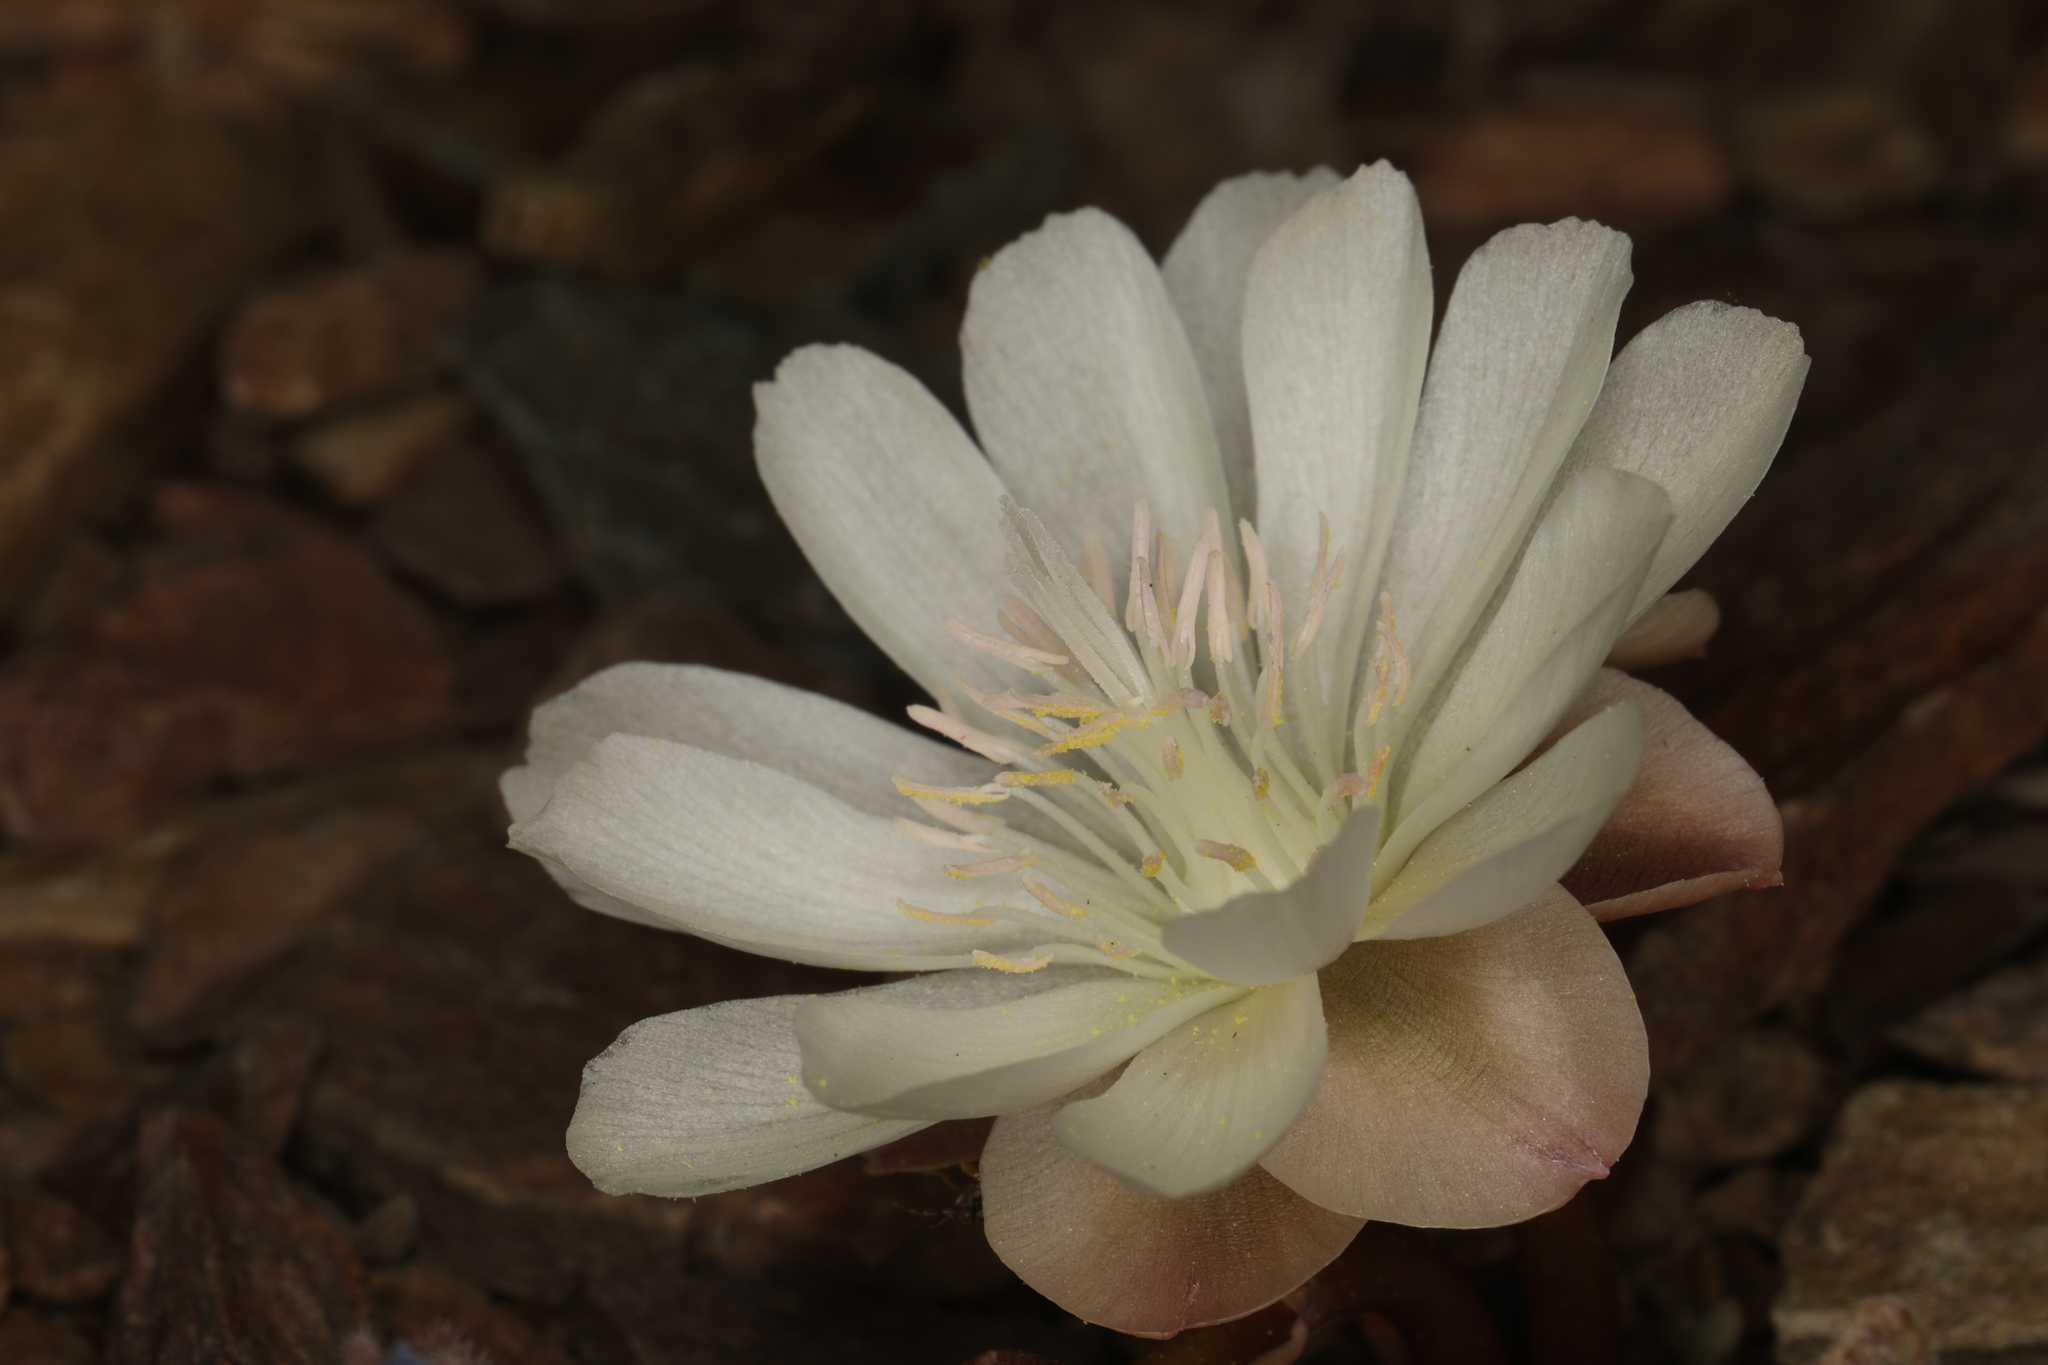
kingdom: Plantae
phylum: Tracheophyta
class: Magnoliopsida
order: Caryophyllales
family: Montiaceae
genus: Lewisia
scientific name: Lewisia rediviva
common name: Bitter-root
